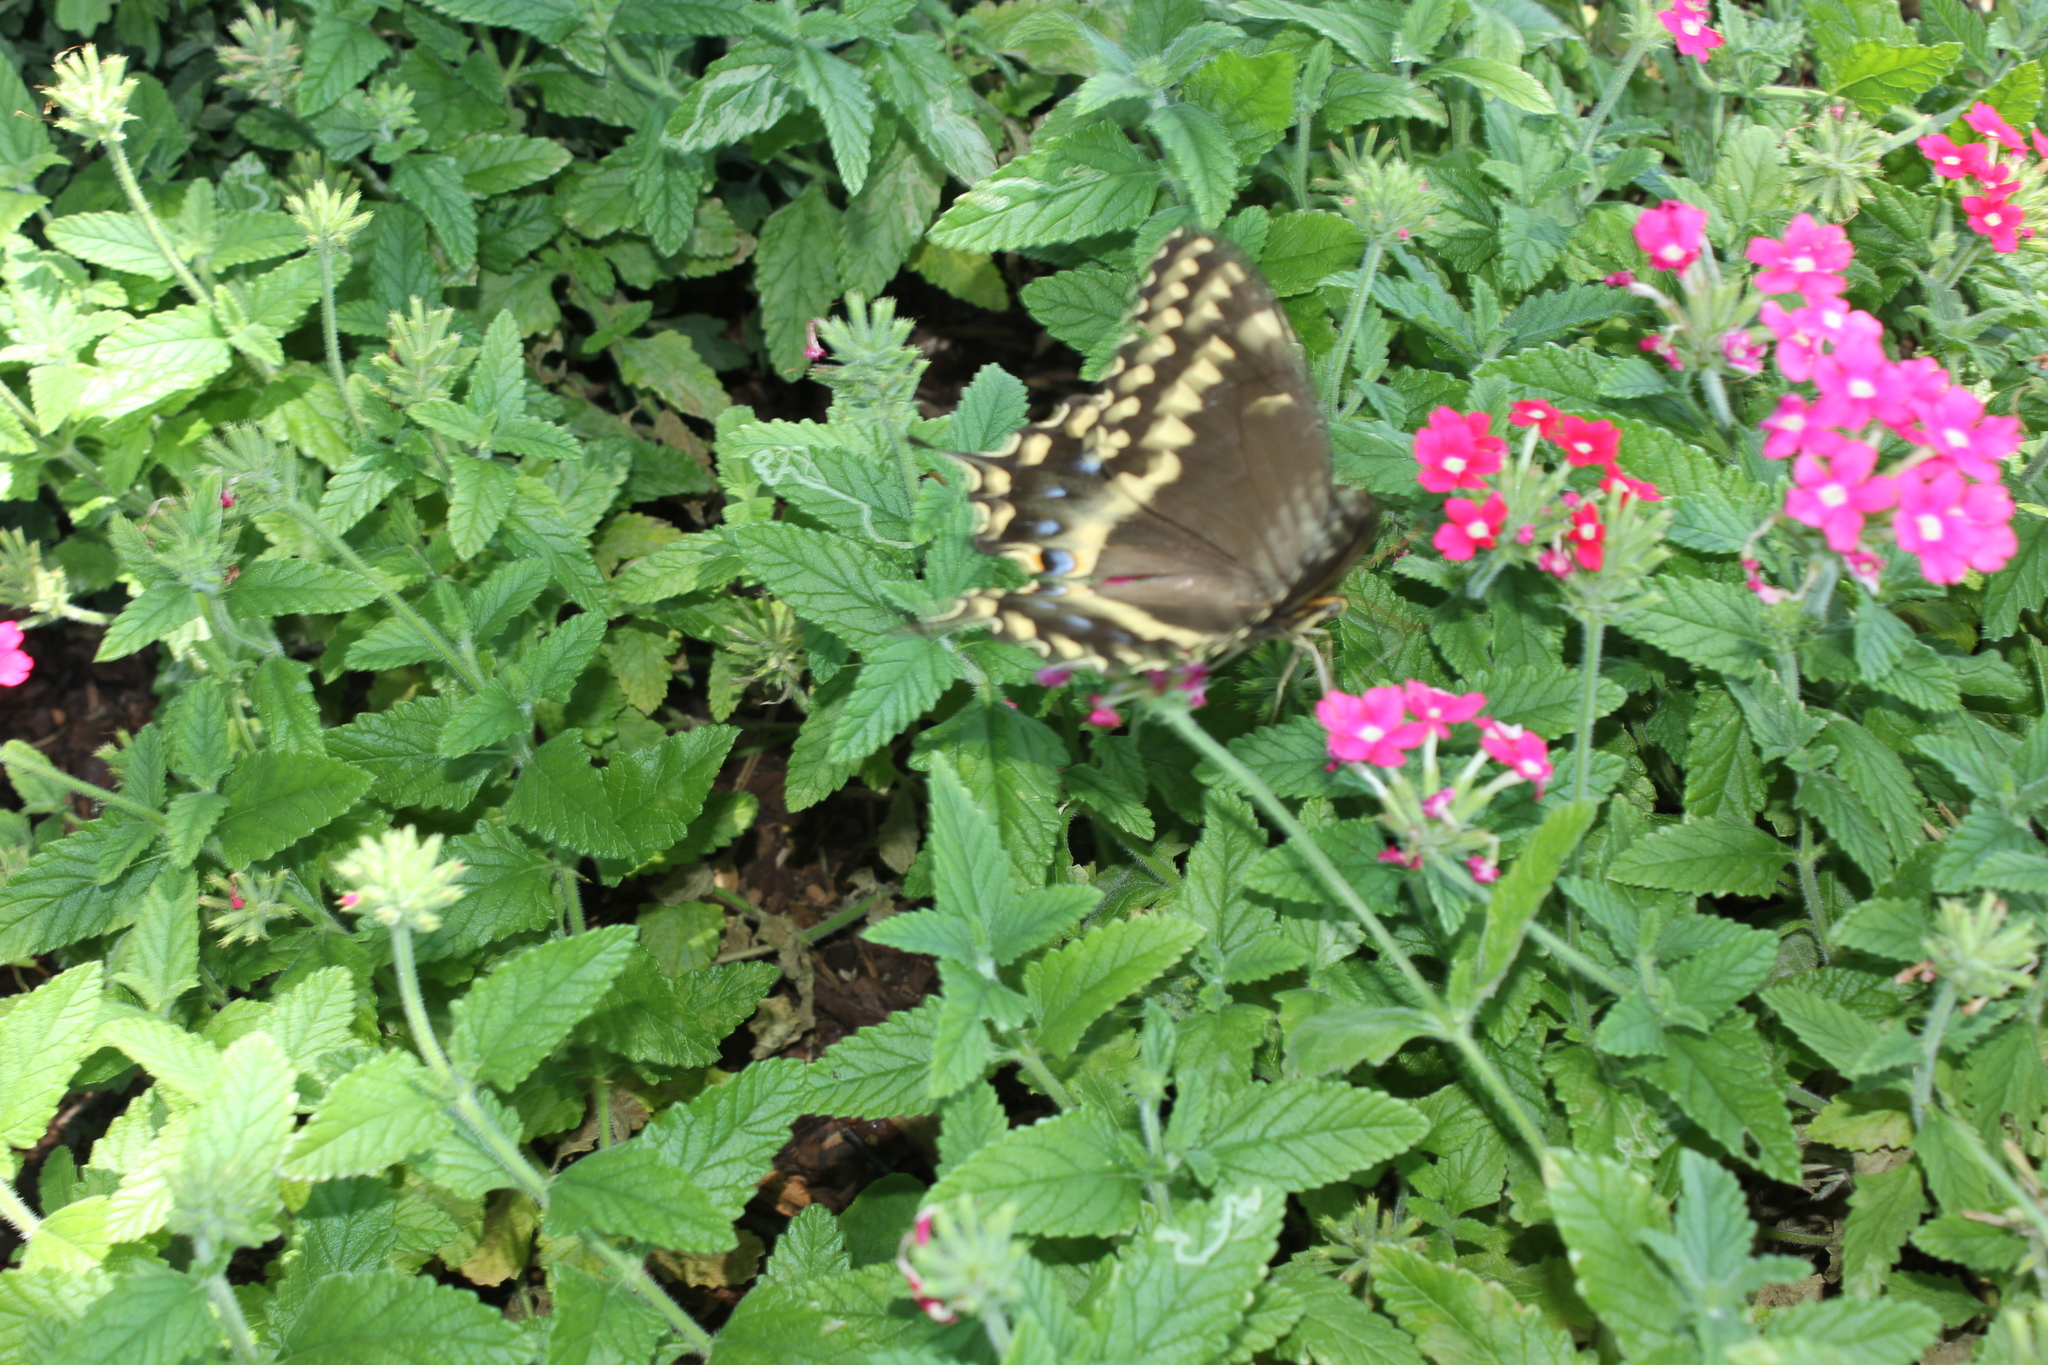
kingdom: Animalia
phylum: Arthropoda
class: Insecta
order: Lepidoptera
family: Papilionidae
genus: Papilio
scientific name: Papilio palamedes
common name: Palamedes swallowtail
